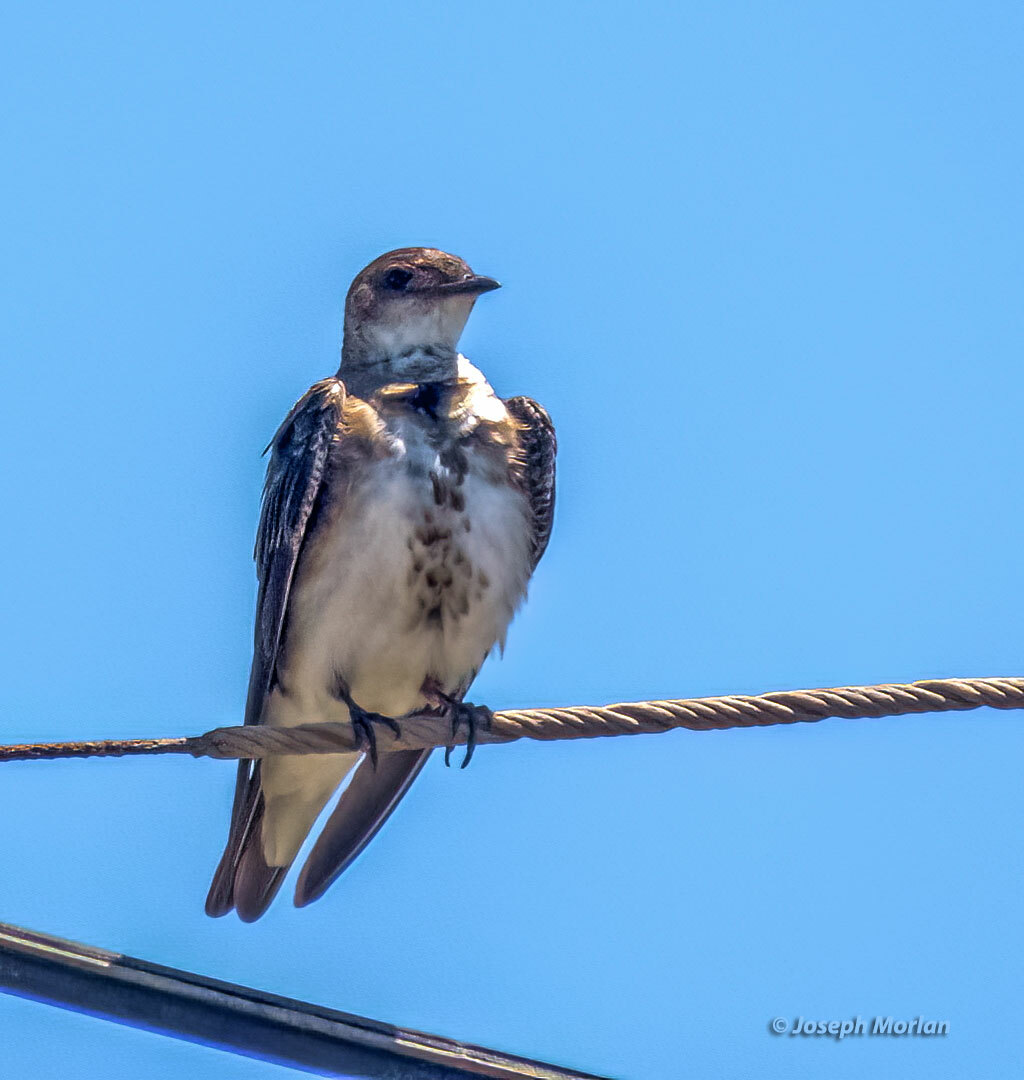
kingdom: Animalia
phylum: Chordata
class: Aves
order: Passeriformes
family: Hirundinidae
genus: Progne
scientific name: Progne tapera
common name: Brown-chested martin
